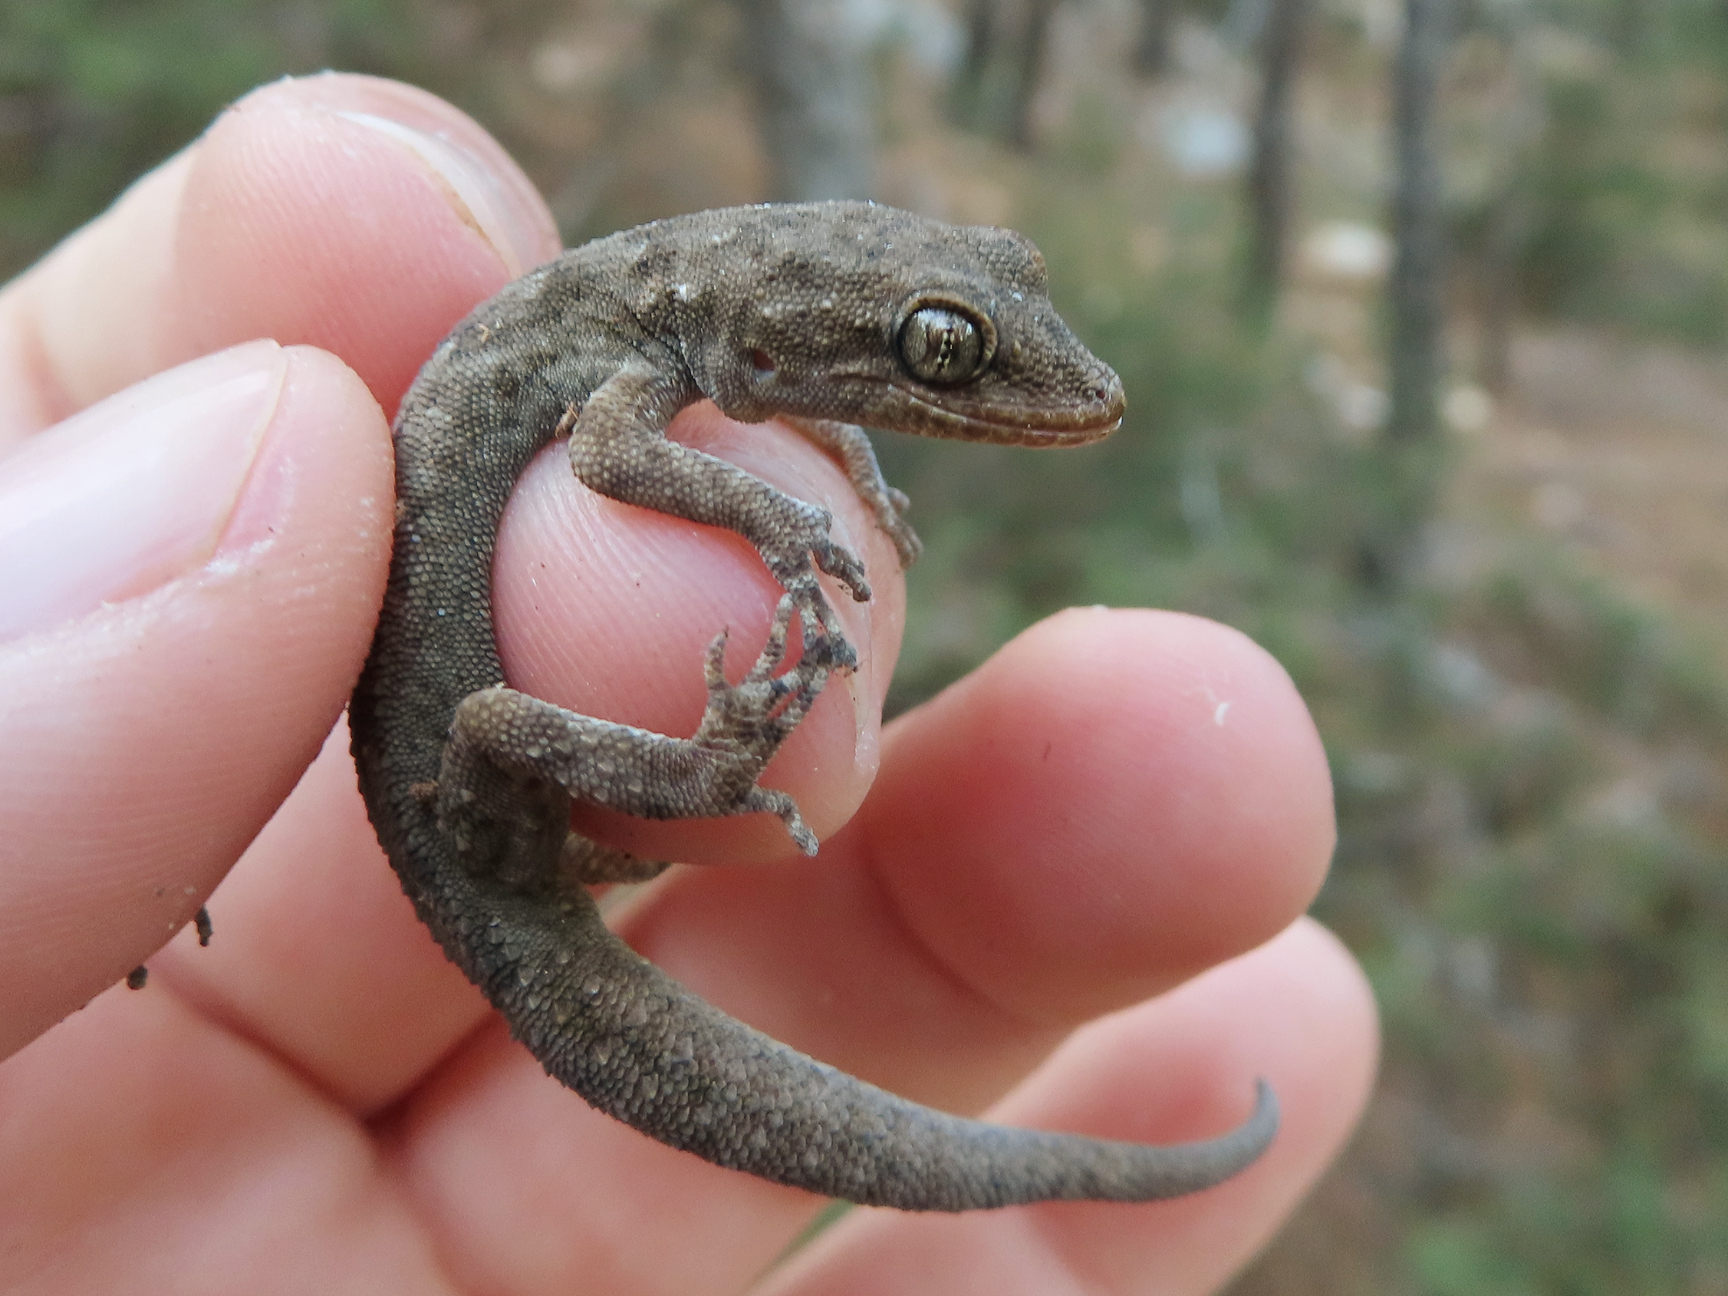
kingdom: Animalia
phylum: Chordata
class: Squamata
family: Gekkonidae
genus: Mediodactylus
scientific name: Mediodactylus oertzeni
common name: Mediterranean thin-toed gecko
